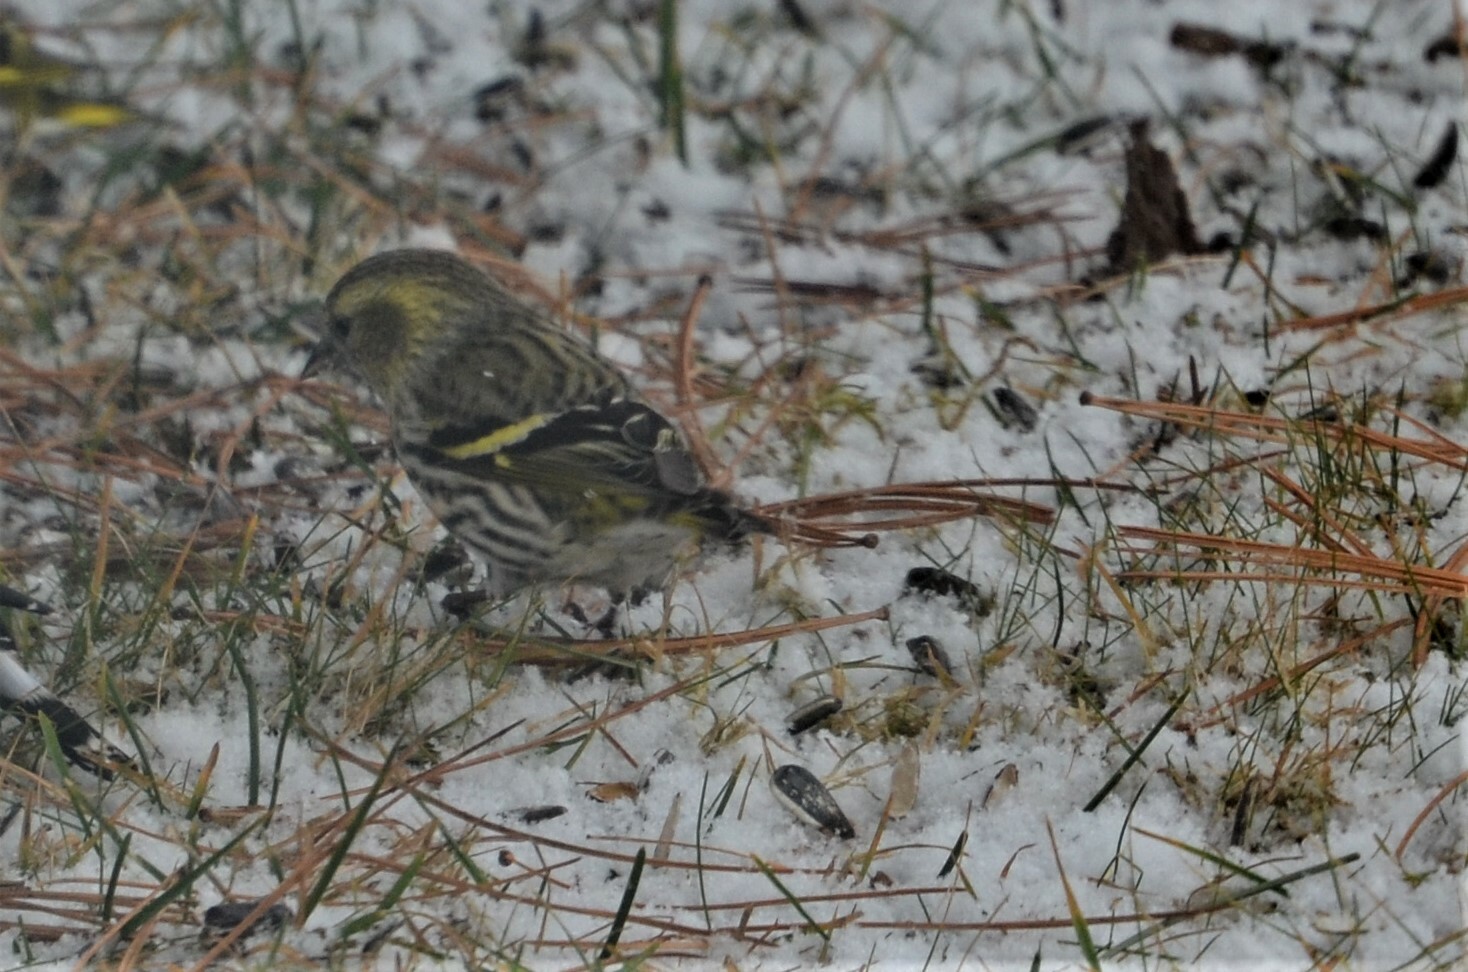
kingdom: Animalia
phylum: Chordata
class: Aves
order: Passeriformes
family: Fringillidae
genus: Spinus
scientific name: Spinus spinus
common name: Eurasian siskin
